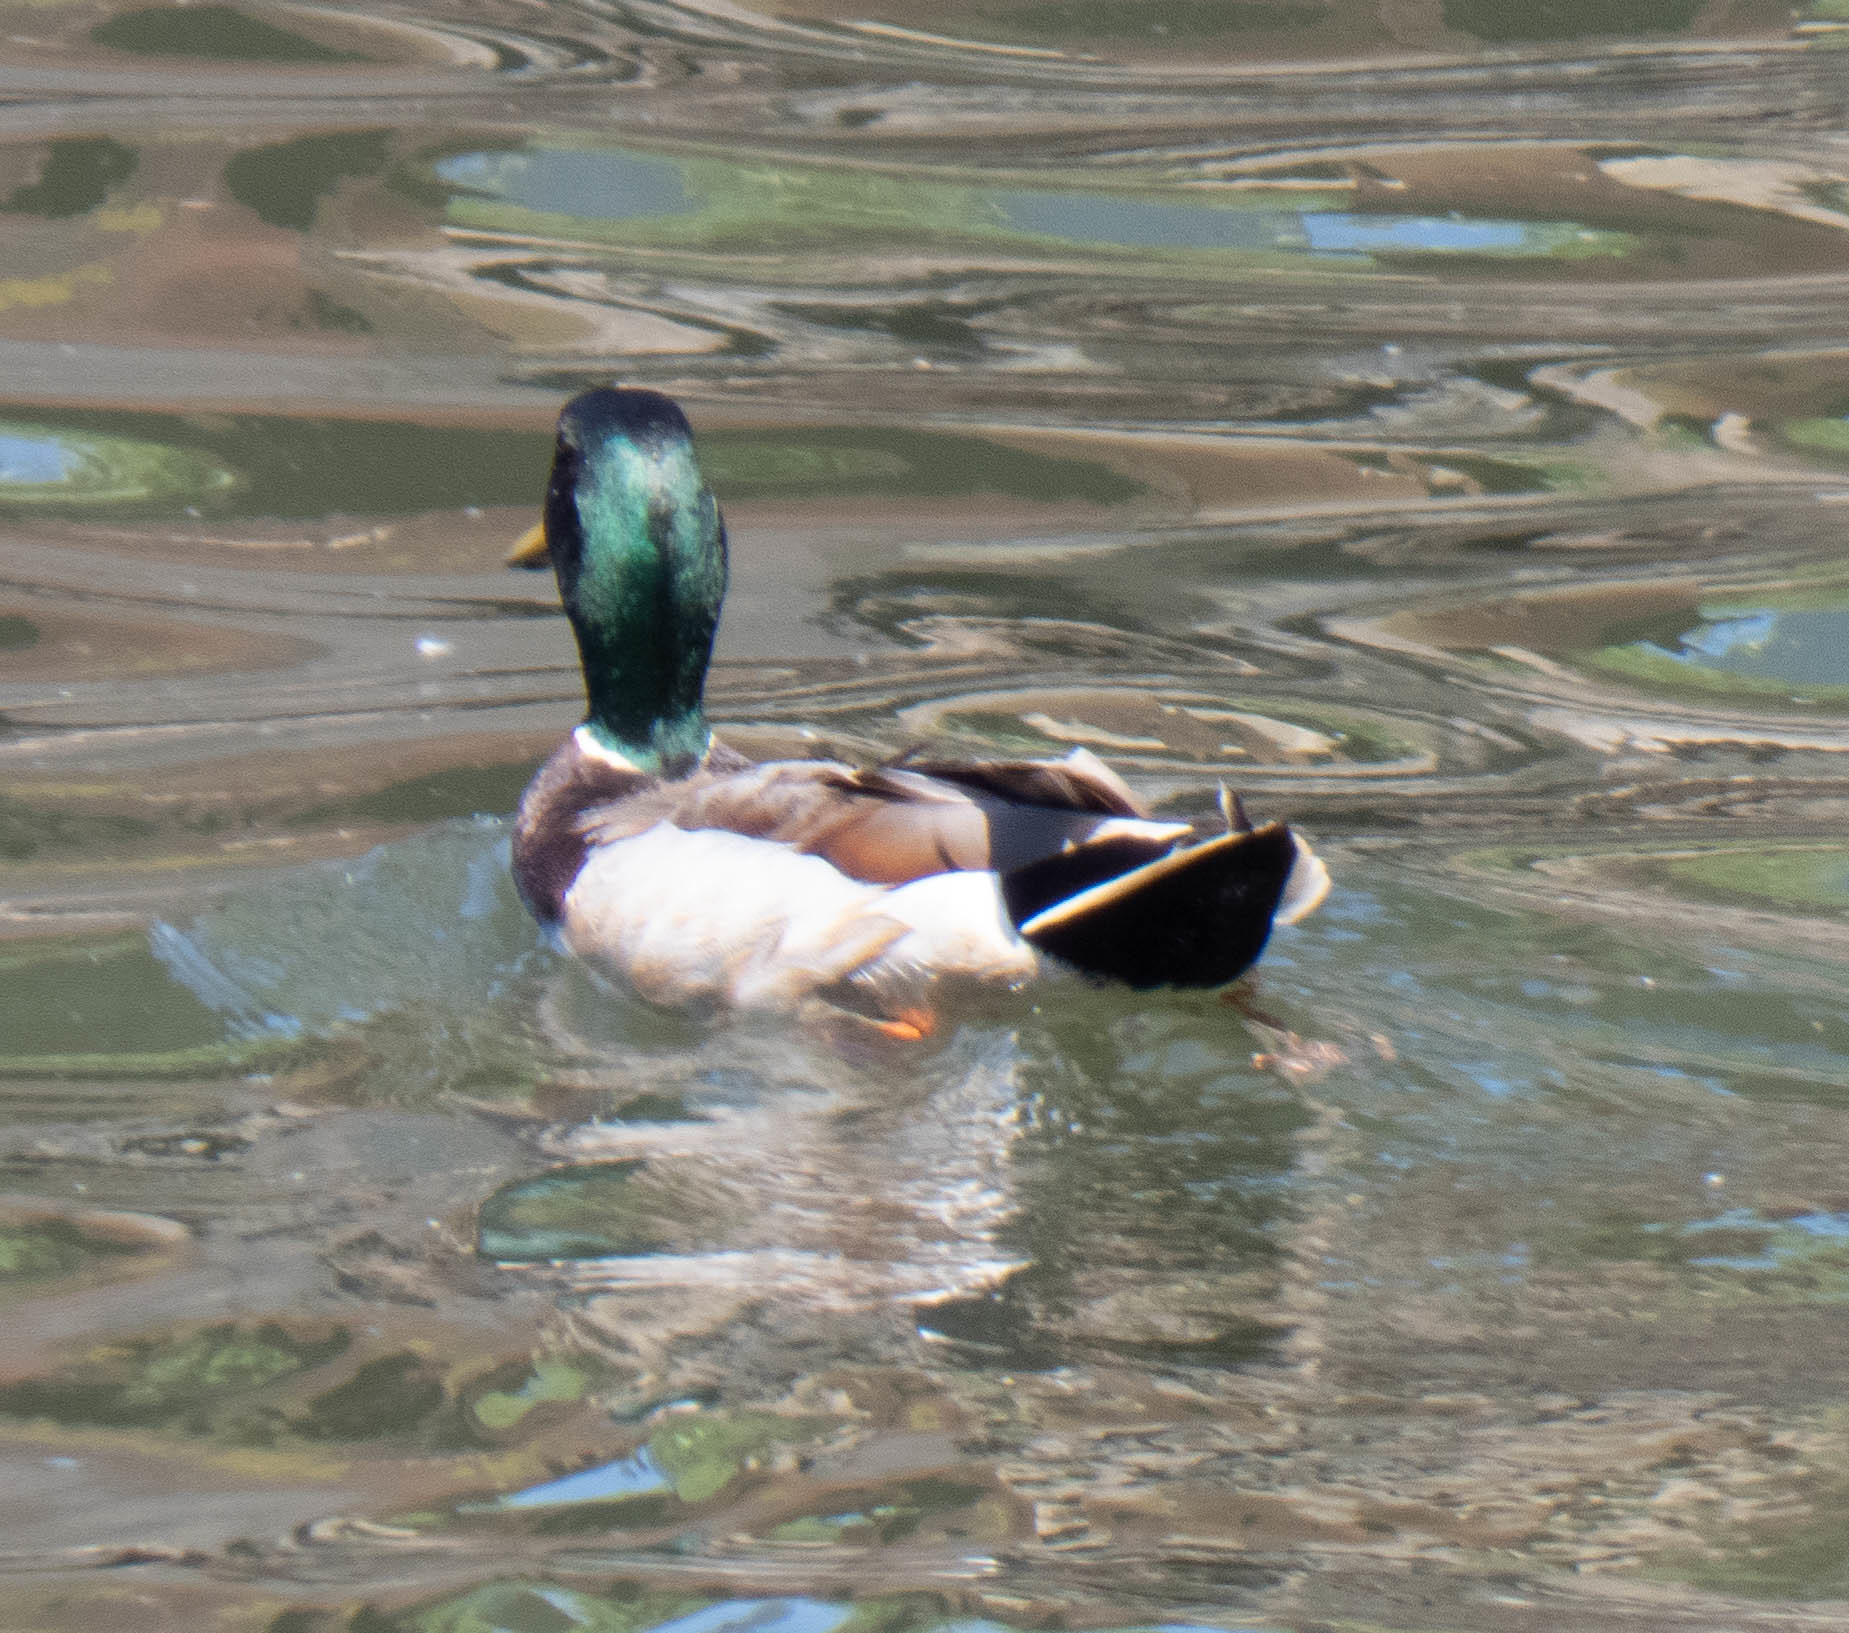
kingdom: Animalia
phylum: Chordata
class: Aves
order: Anseriformes
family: Anatidae
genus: Anas
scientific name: Anas platyrhynchos
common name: Mallard
